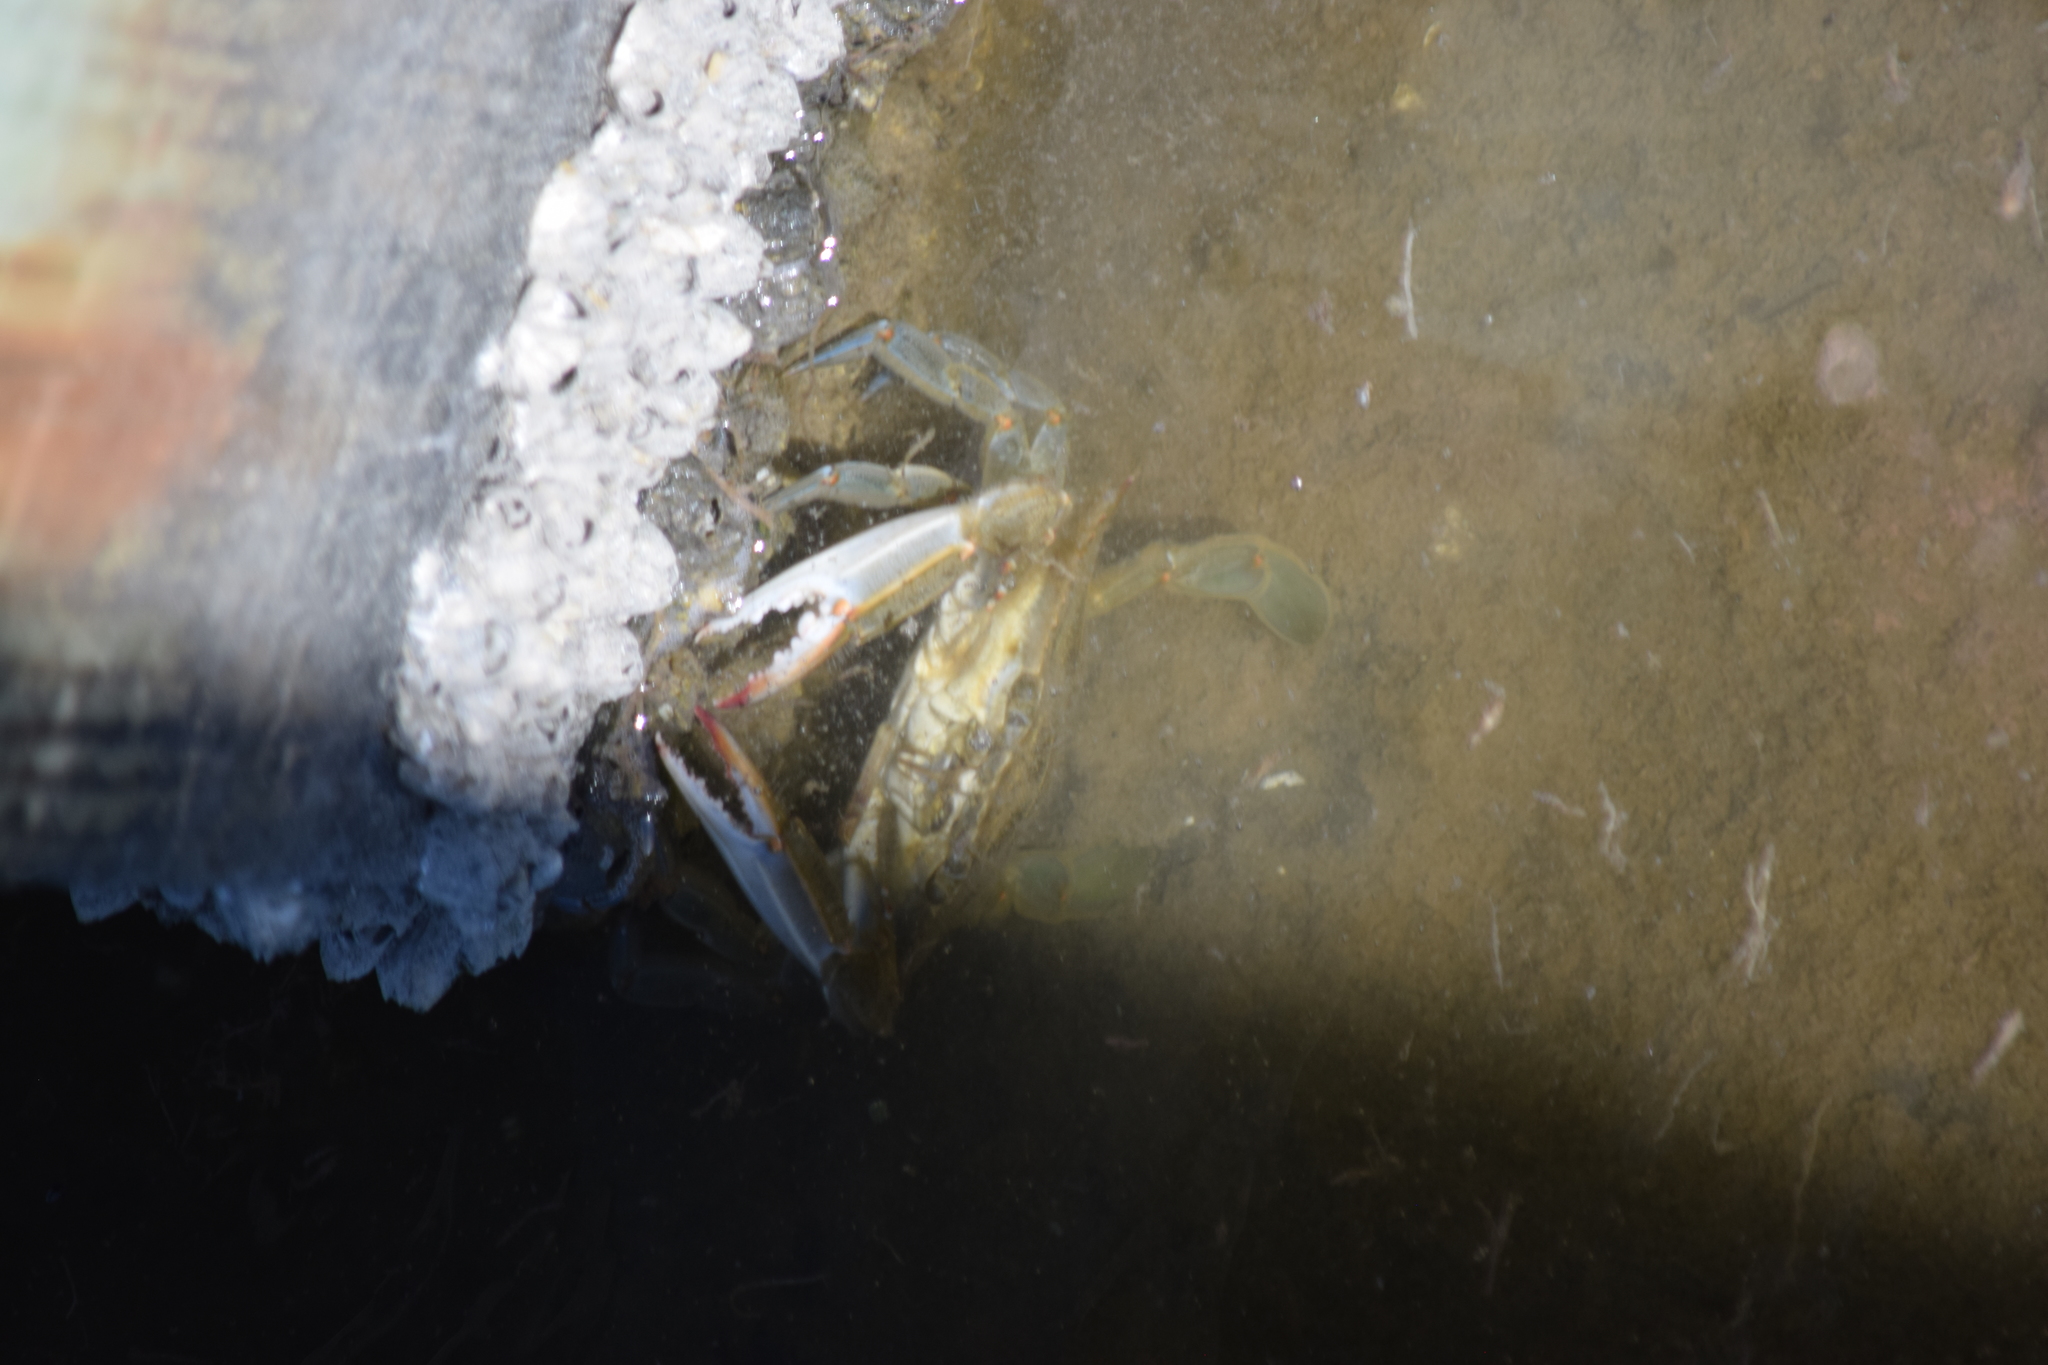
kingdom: Animalia
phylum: Arthropoda
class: Malacostraca
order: Decapoda
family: Portunidae
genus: Callinectes
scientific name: Callinectes sapidus
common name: Blue crab
